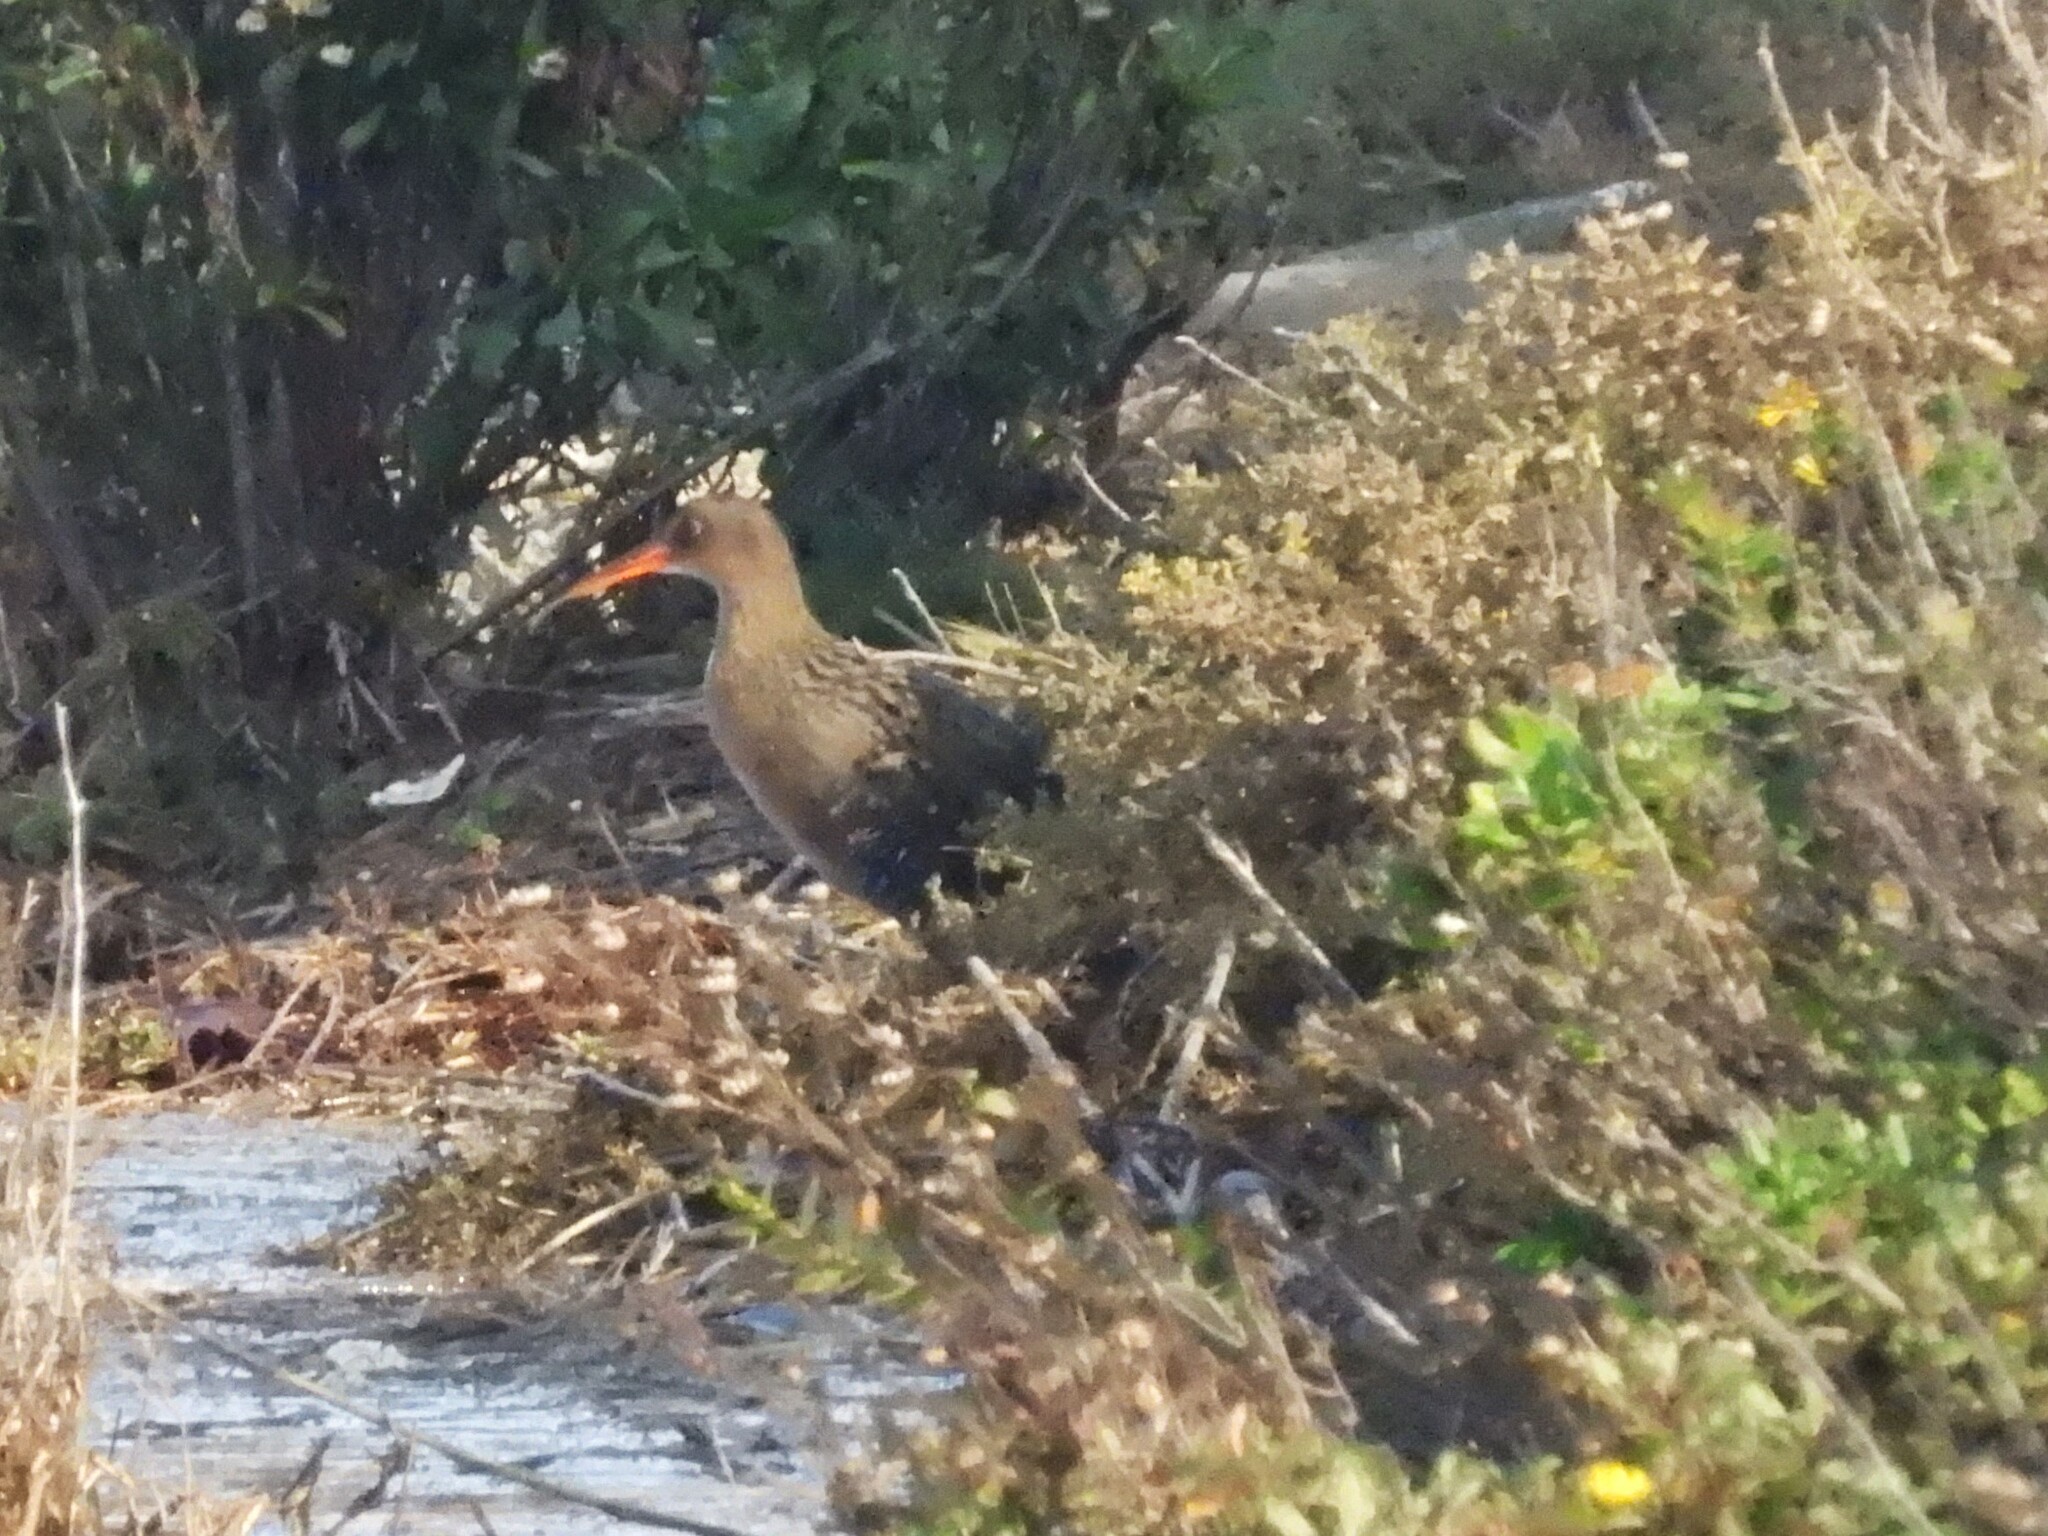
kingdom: Animalia
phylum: Chordata
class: Aves
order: Gruiformes
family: Rallidae
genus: Rallus
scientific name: Rallus obsoletus
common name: Ridgway's rail
